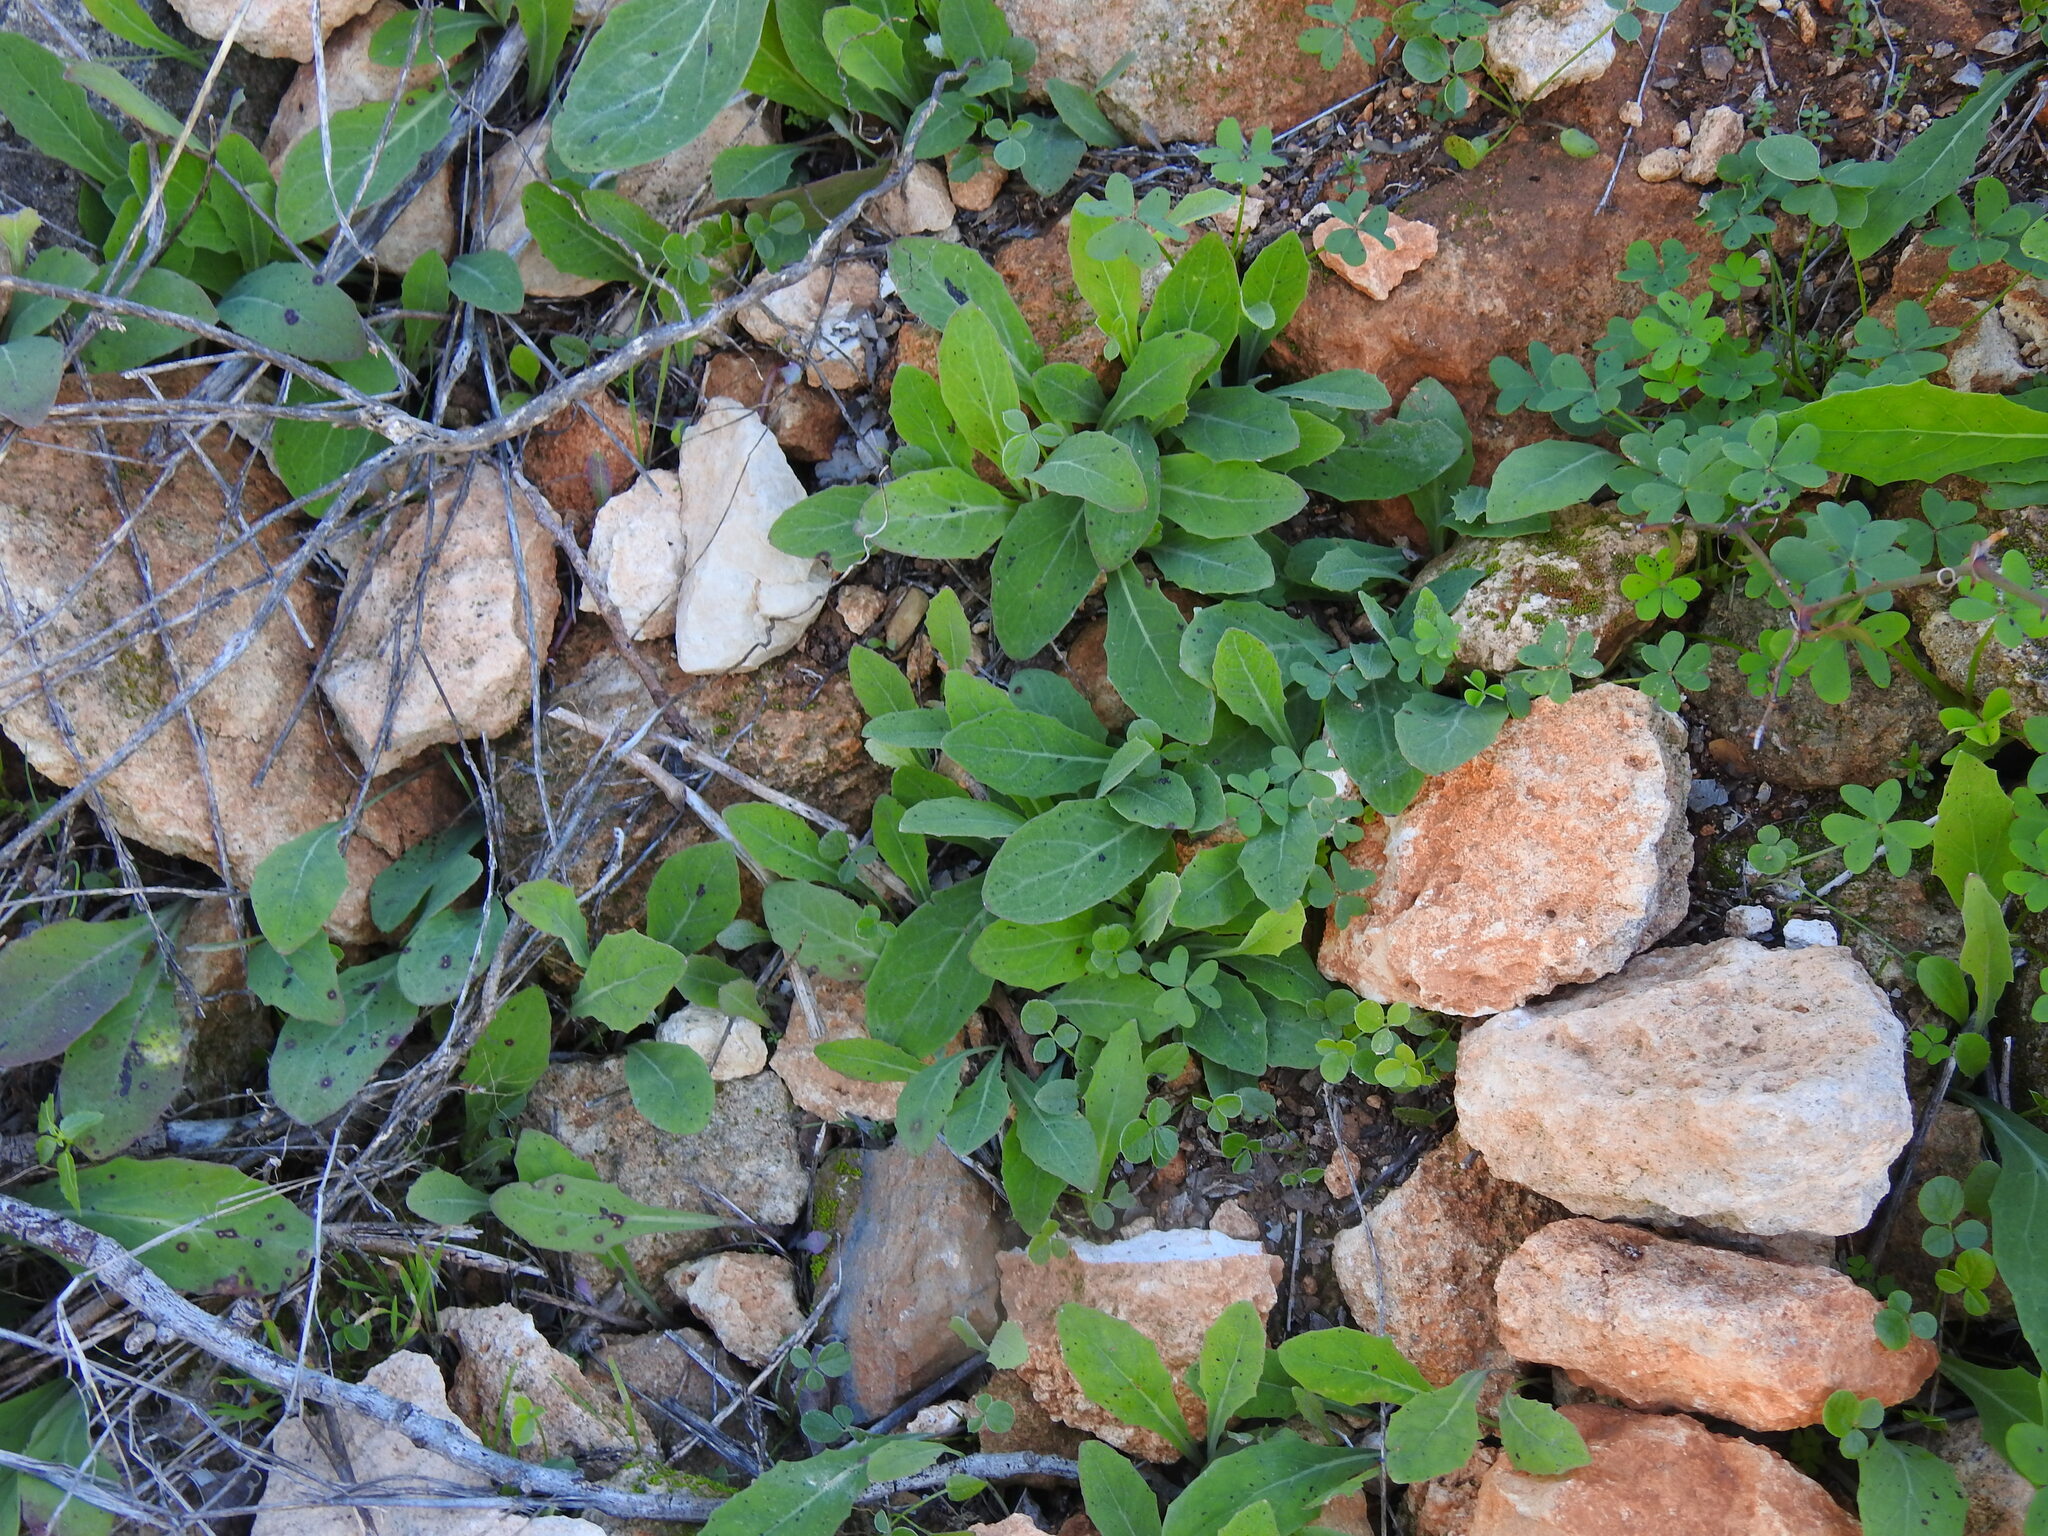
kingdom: Plantae
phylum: Tracheophyta
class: Magnoliopsida
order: Asterales
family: Asteraceae
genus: Aetheorhiza
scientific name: Aetheorhiza bulbosa
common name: Tuberous hawk's-beard
